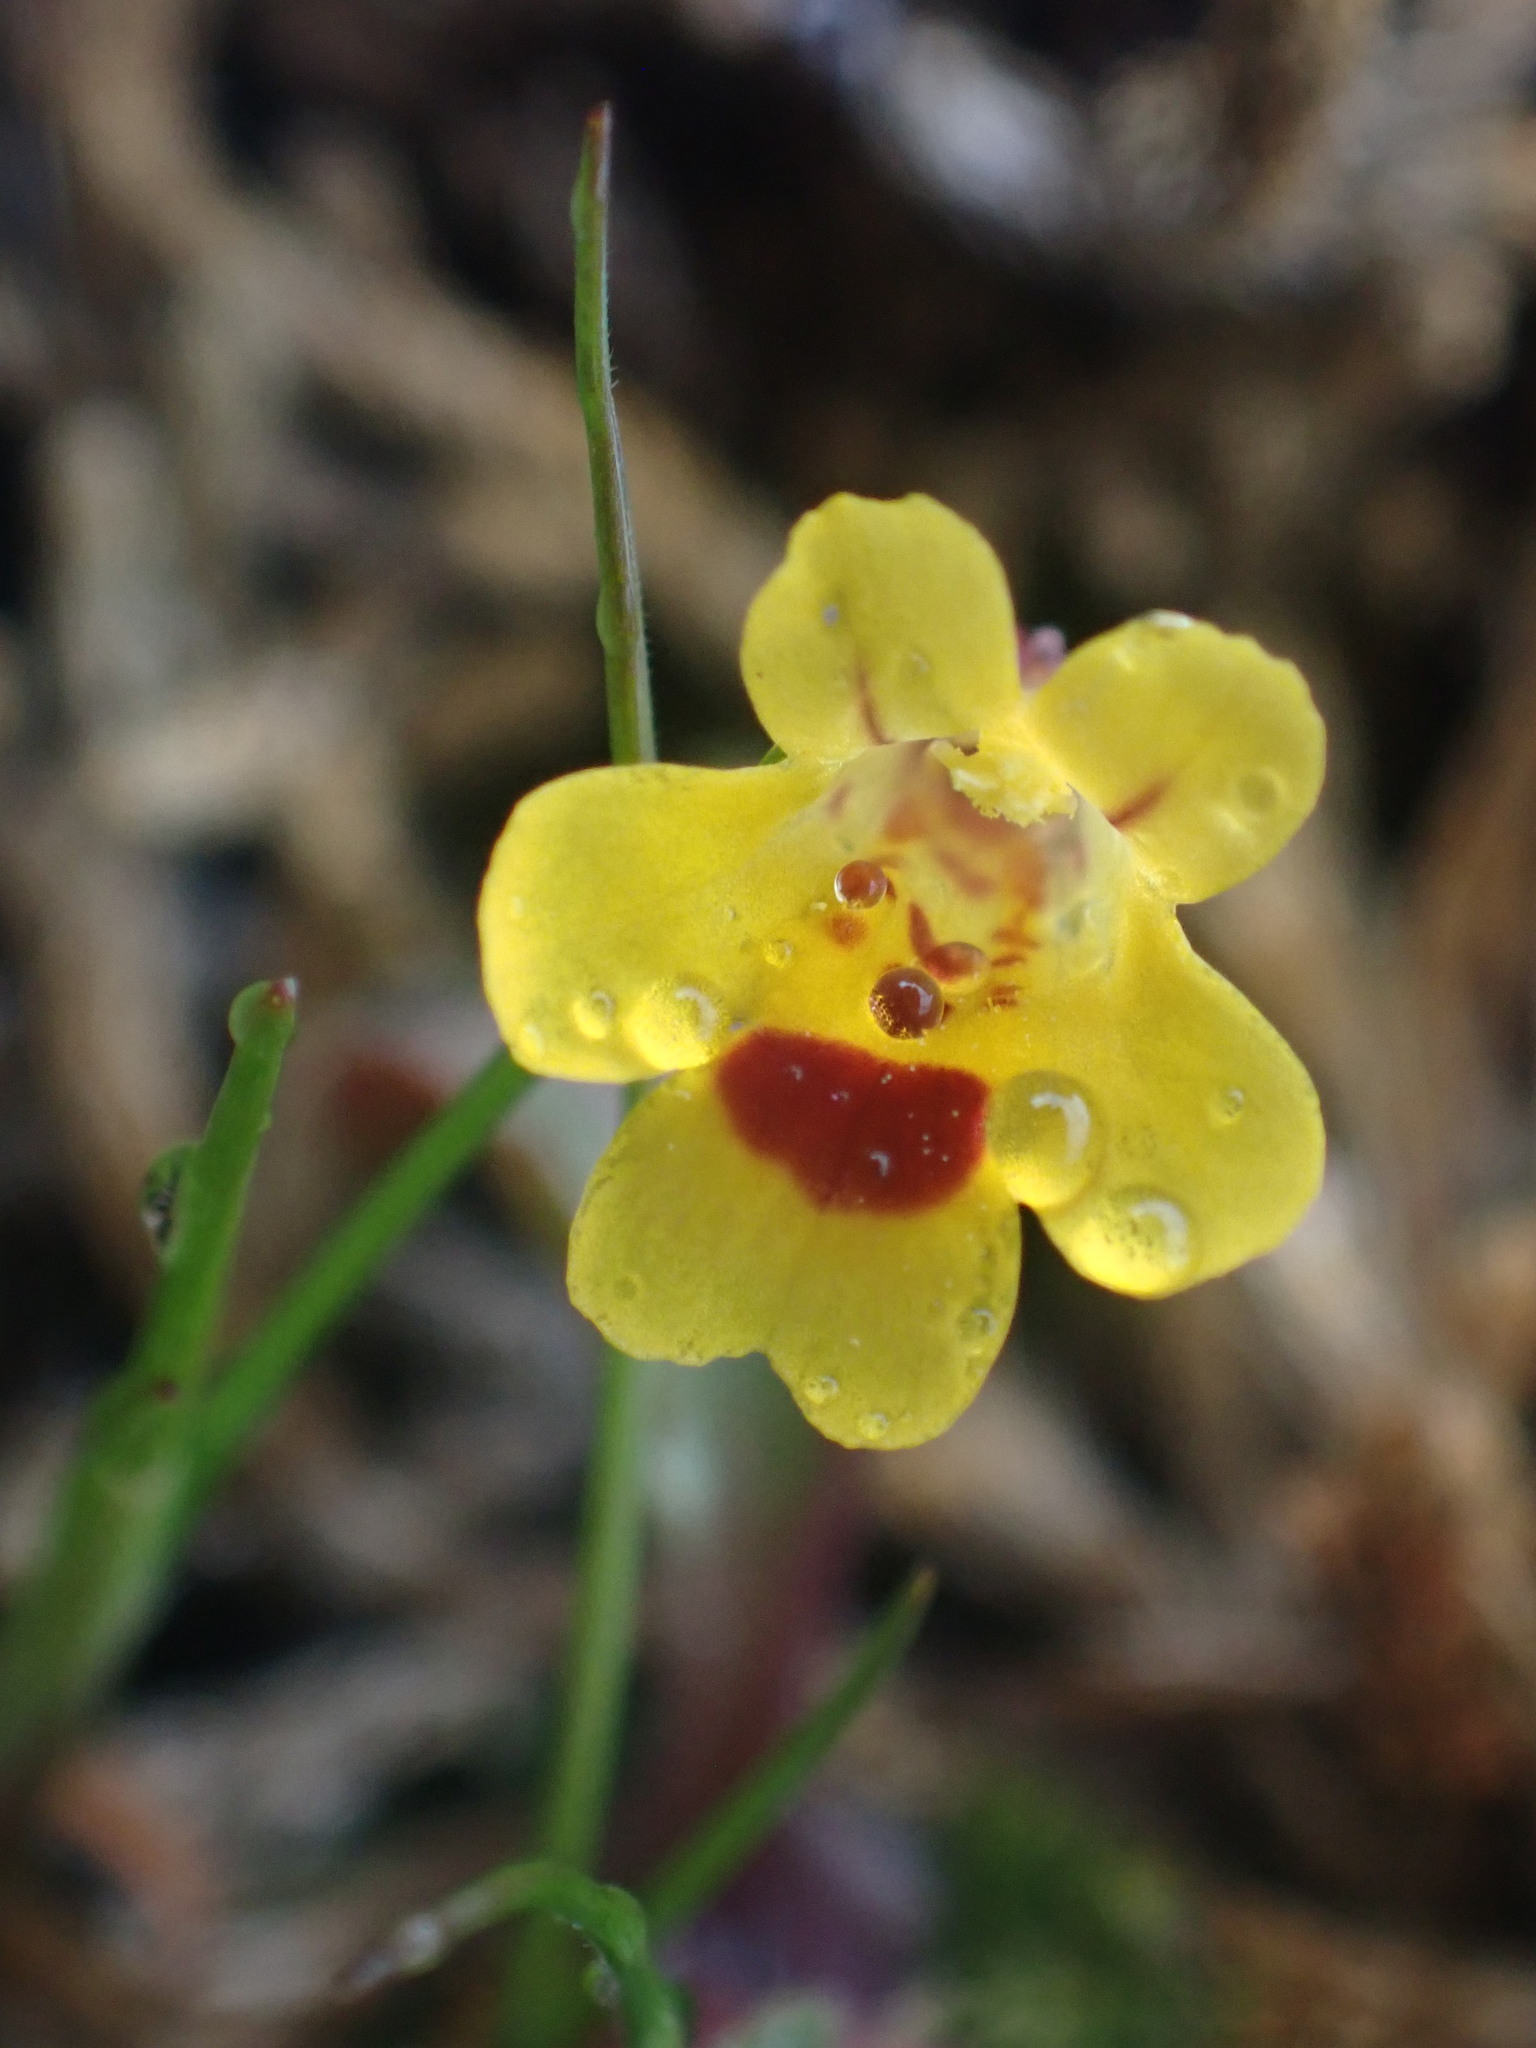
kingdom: Plantae
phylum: Tracheophyta
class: Magnoliopsida
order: Lamiales
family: Phrymaceae
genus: Erythranthe
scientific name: Erythranthe alsinoides
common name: Chickweed monkeyflower
